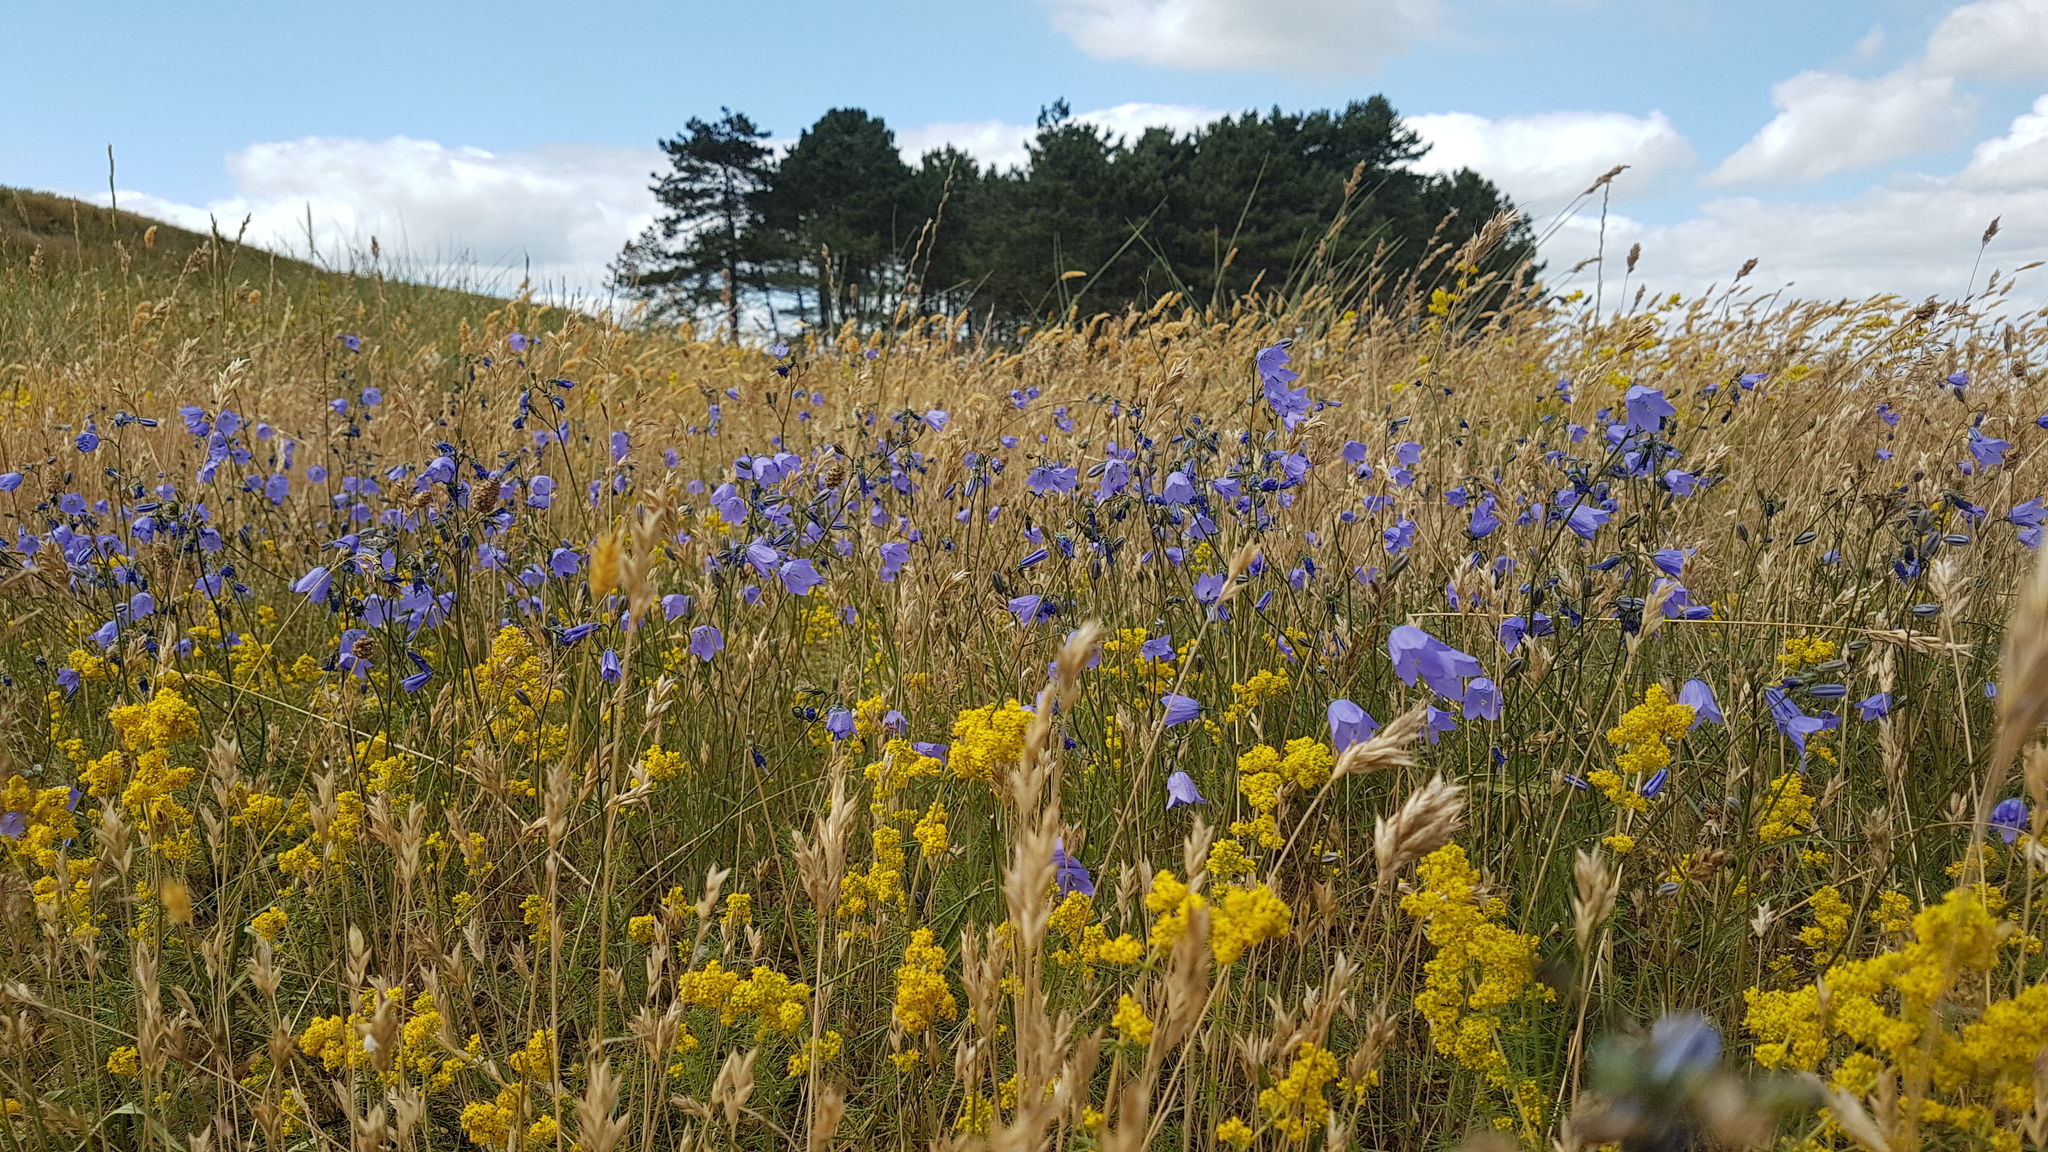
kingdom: Plantae
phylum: Tracheophyta
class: Magnoliopsida
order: Asterales
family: Campanulaceae
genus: Campanula
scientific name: Campanula rotundifolia
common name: Harebell
